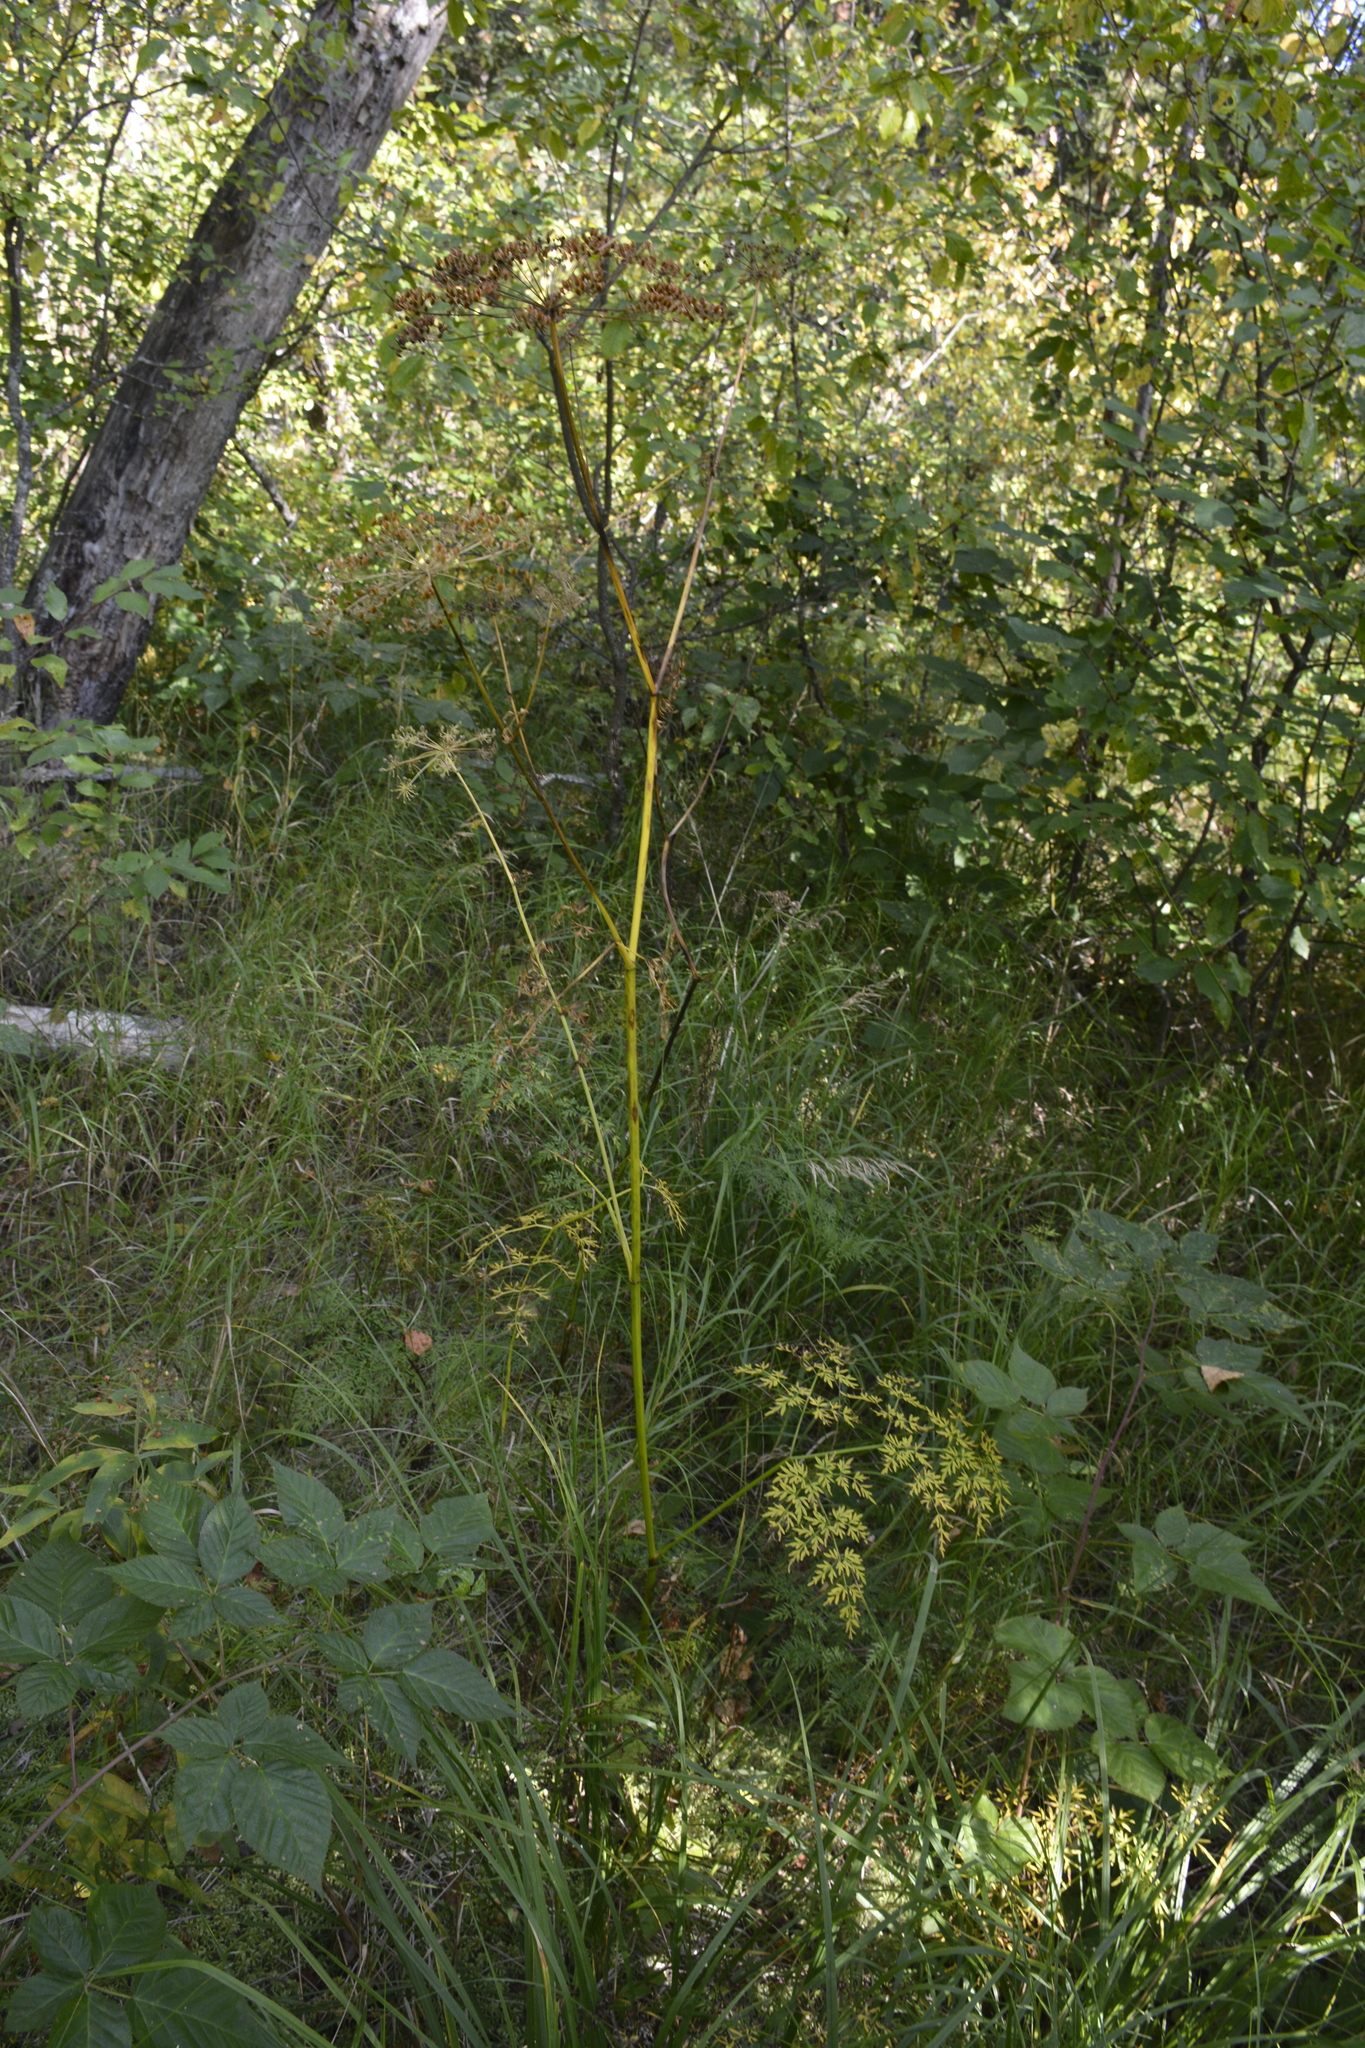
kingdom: Plantae
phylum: Tracheophyta
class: Magnoliopsida
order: Apiales
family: Apiaceae
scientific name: Apiaceae
